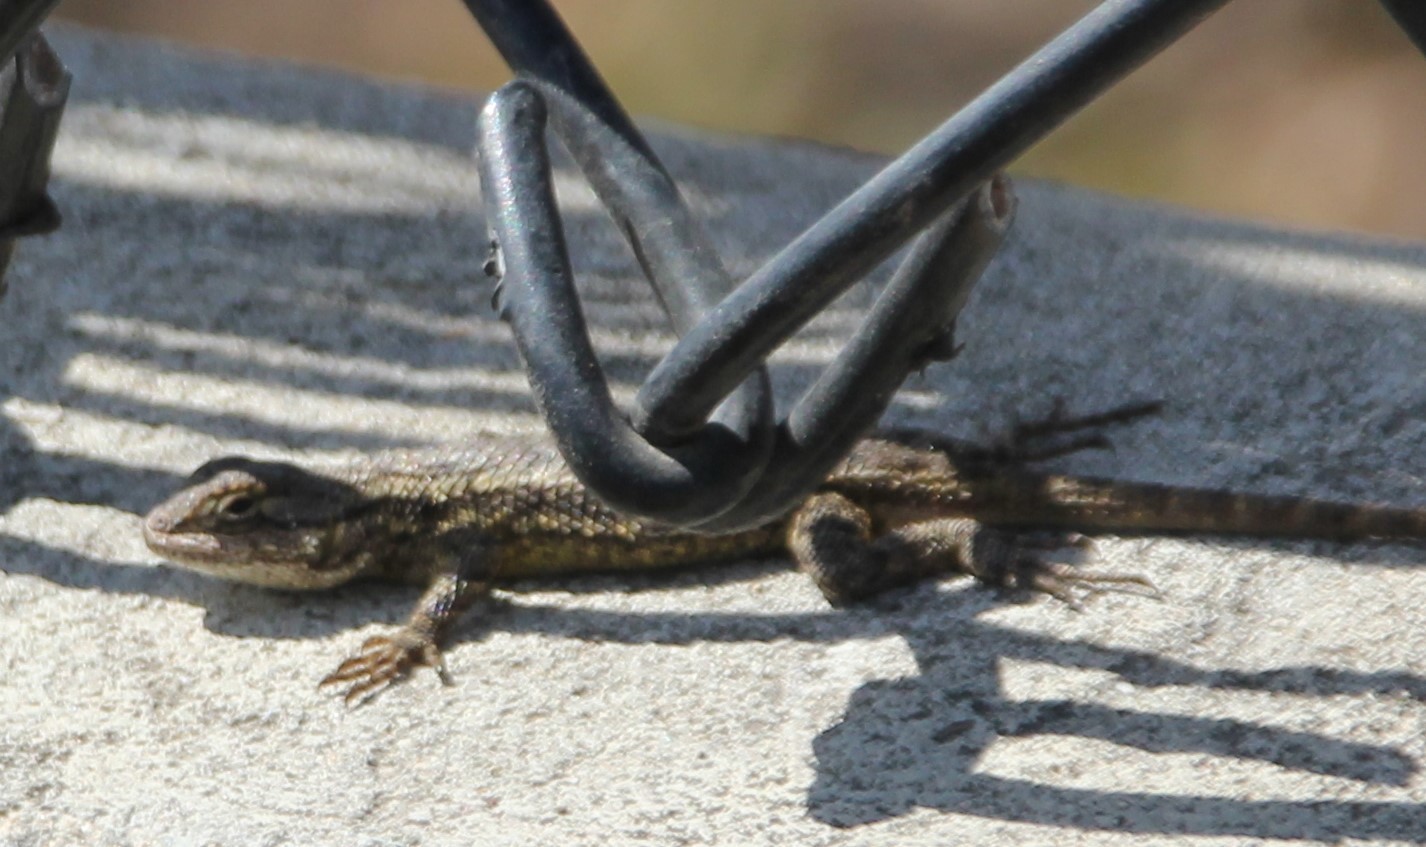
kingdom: Animalia
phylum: Chordata
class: Squamata
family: Phrynosomatidae
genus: Sceloporus
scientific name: Sceloporus occidentalis
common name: Western fence lizard
